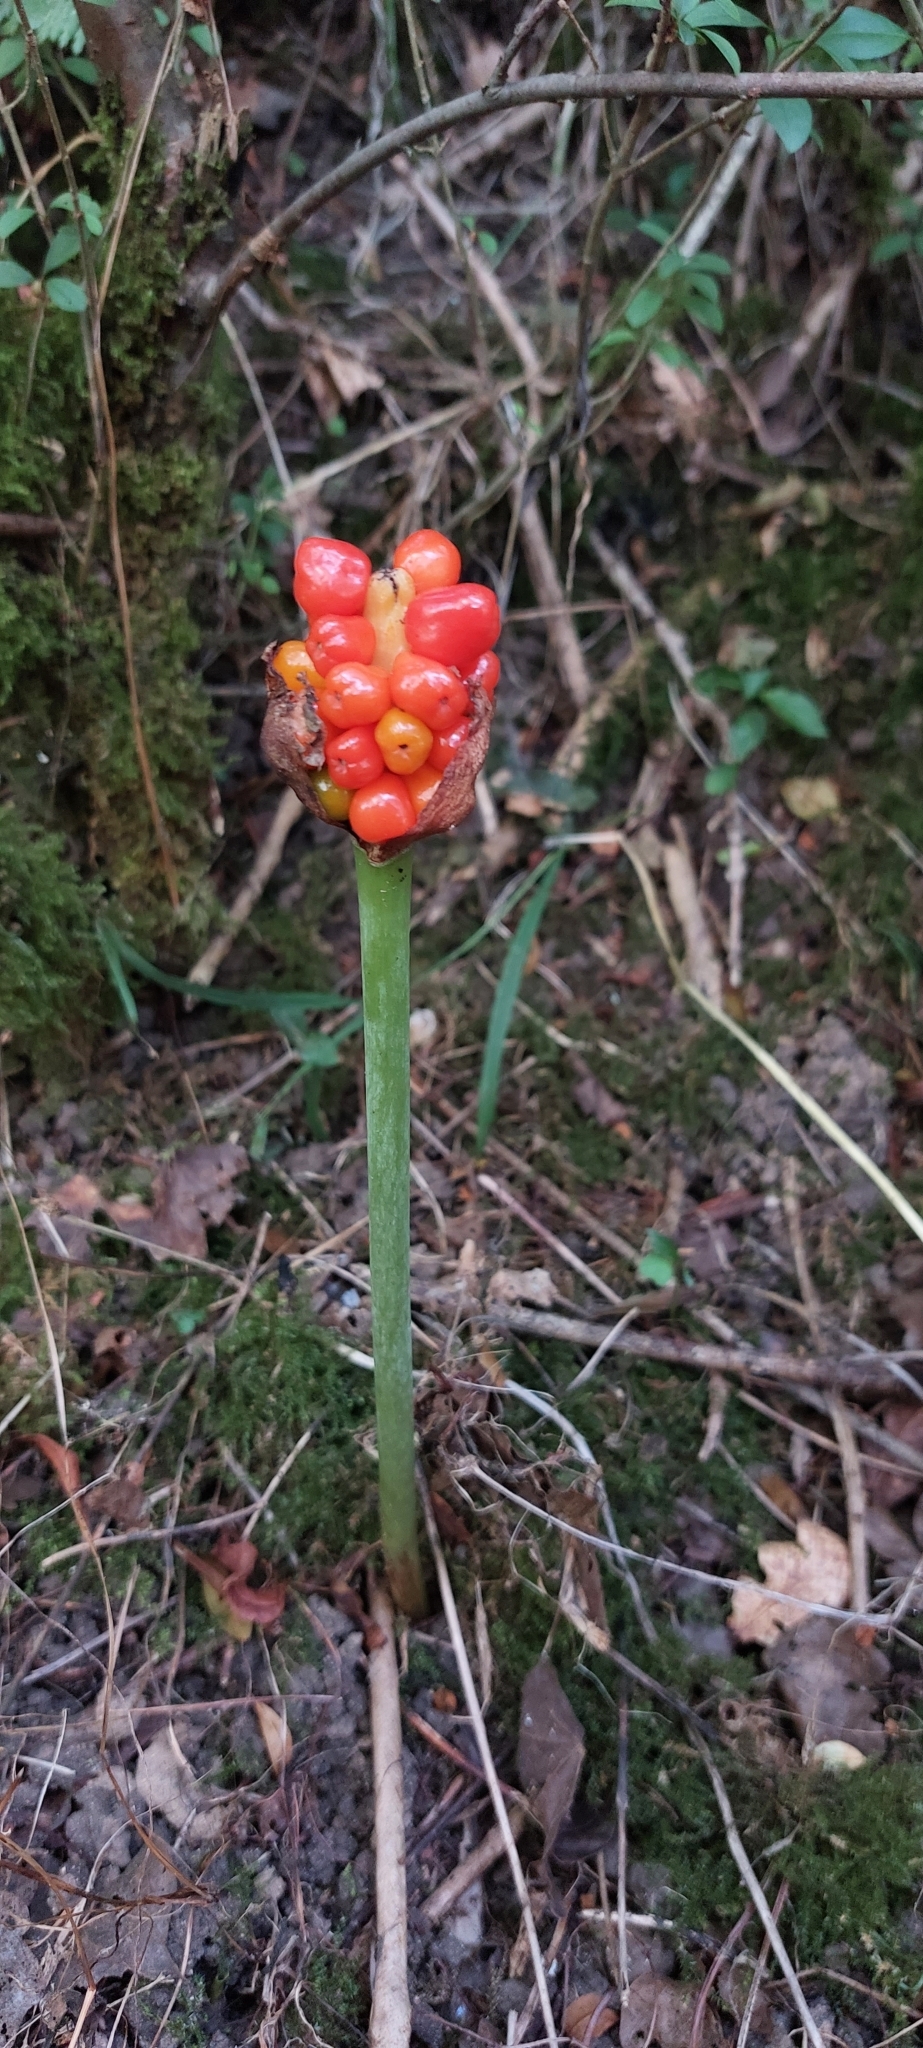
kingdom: Plantae
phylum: Tracheophyta
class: Liliopsida
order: Alismatales
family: Araceae
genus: Arum
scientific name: Arum maculatum
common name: Lords-and-ladies
